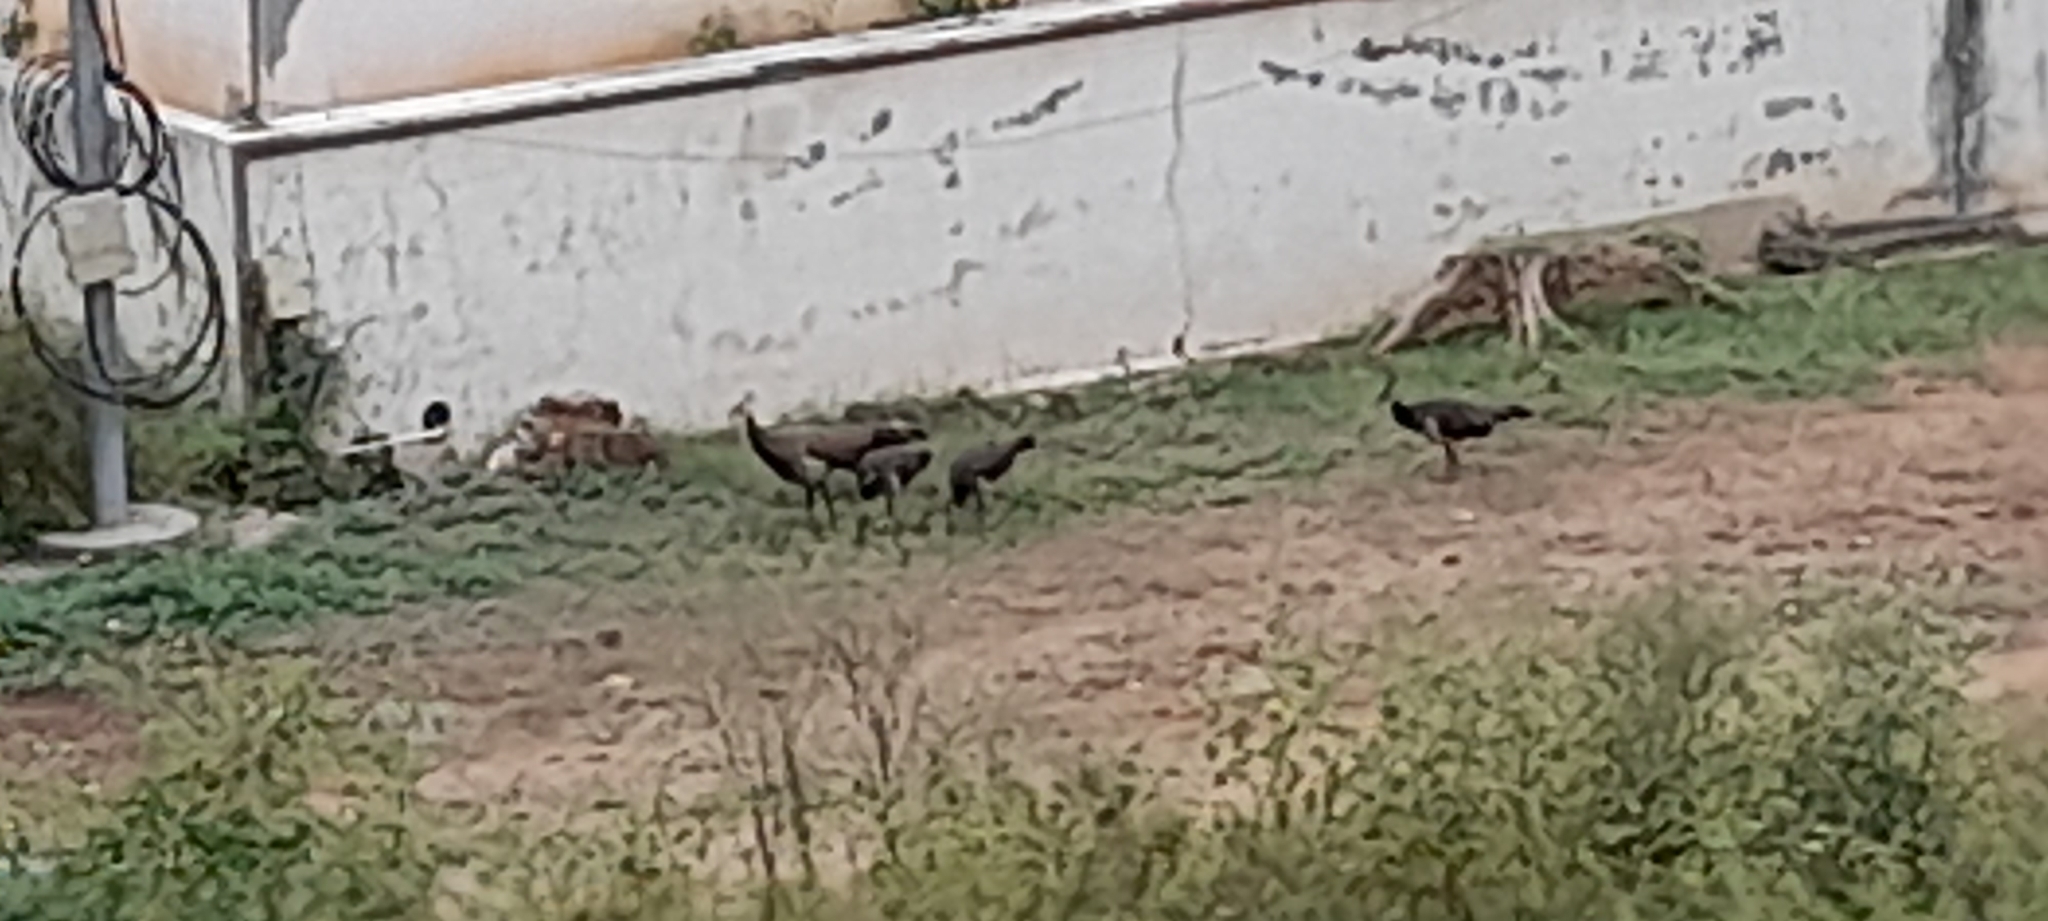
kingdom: Animalia
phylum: Chordata
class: Aves
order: Galliformes
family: Phasianidae
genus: Pavo
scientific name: Pavo cristatus
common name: Indian peafowl
